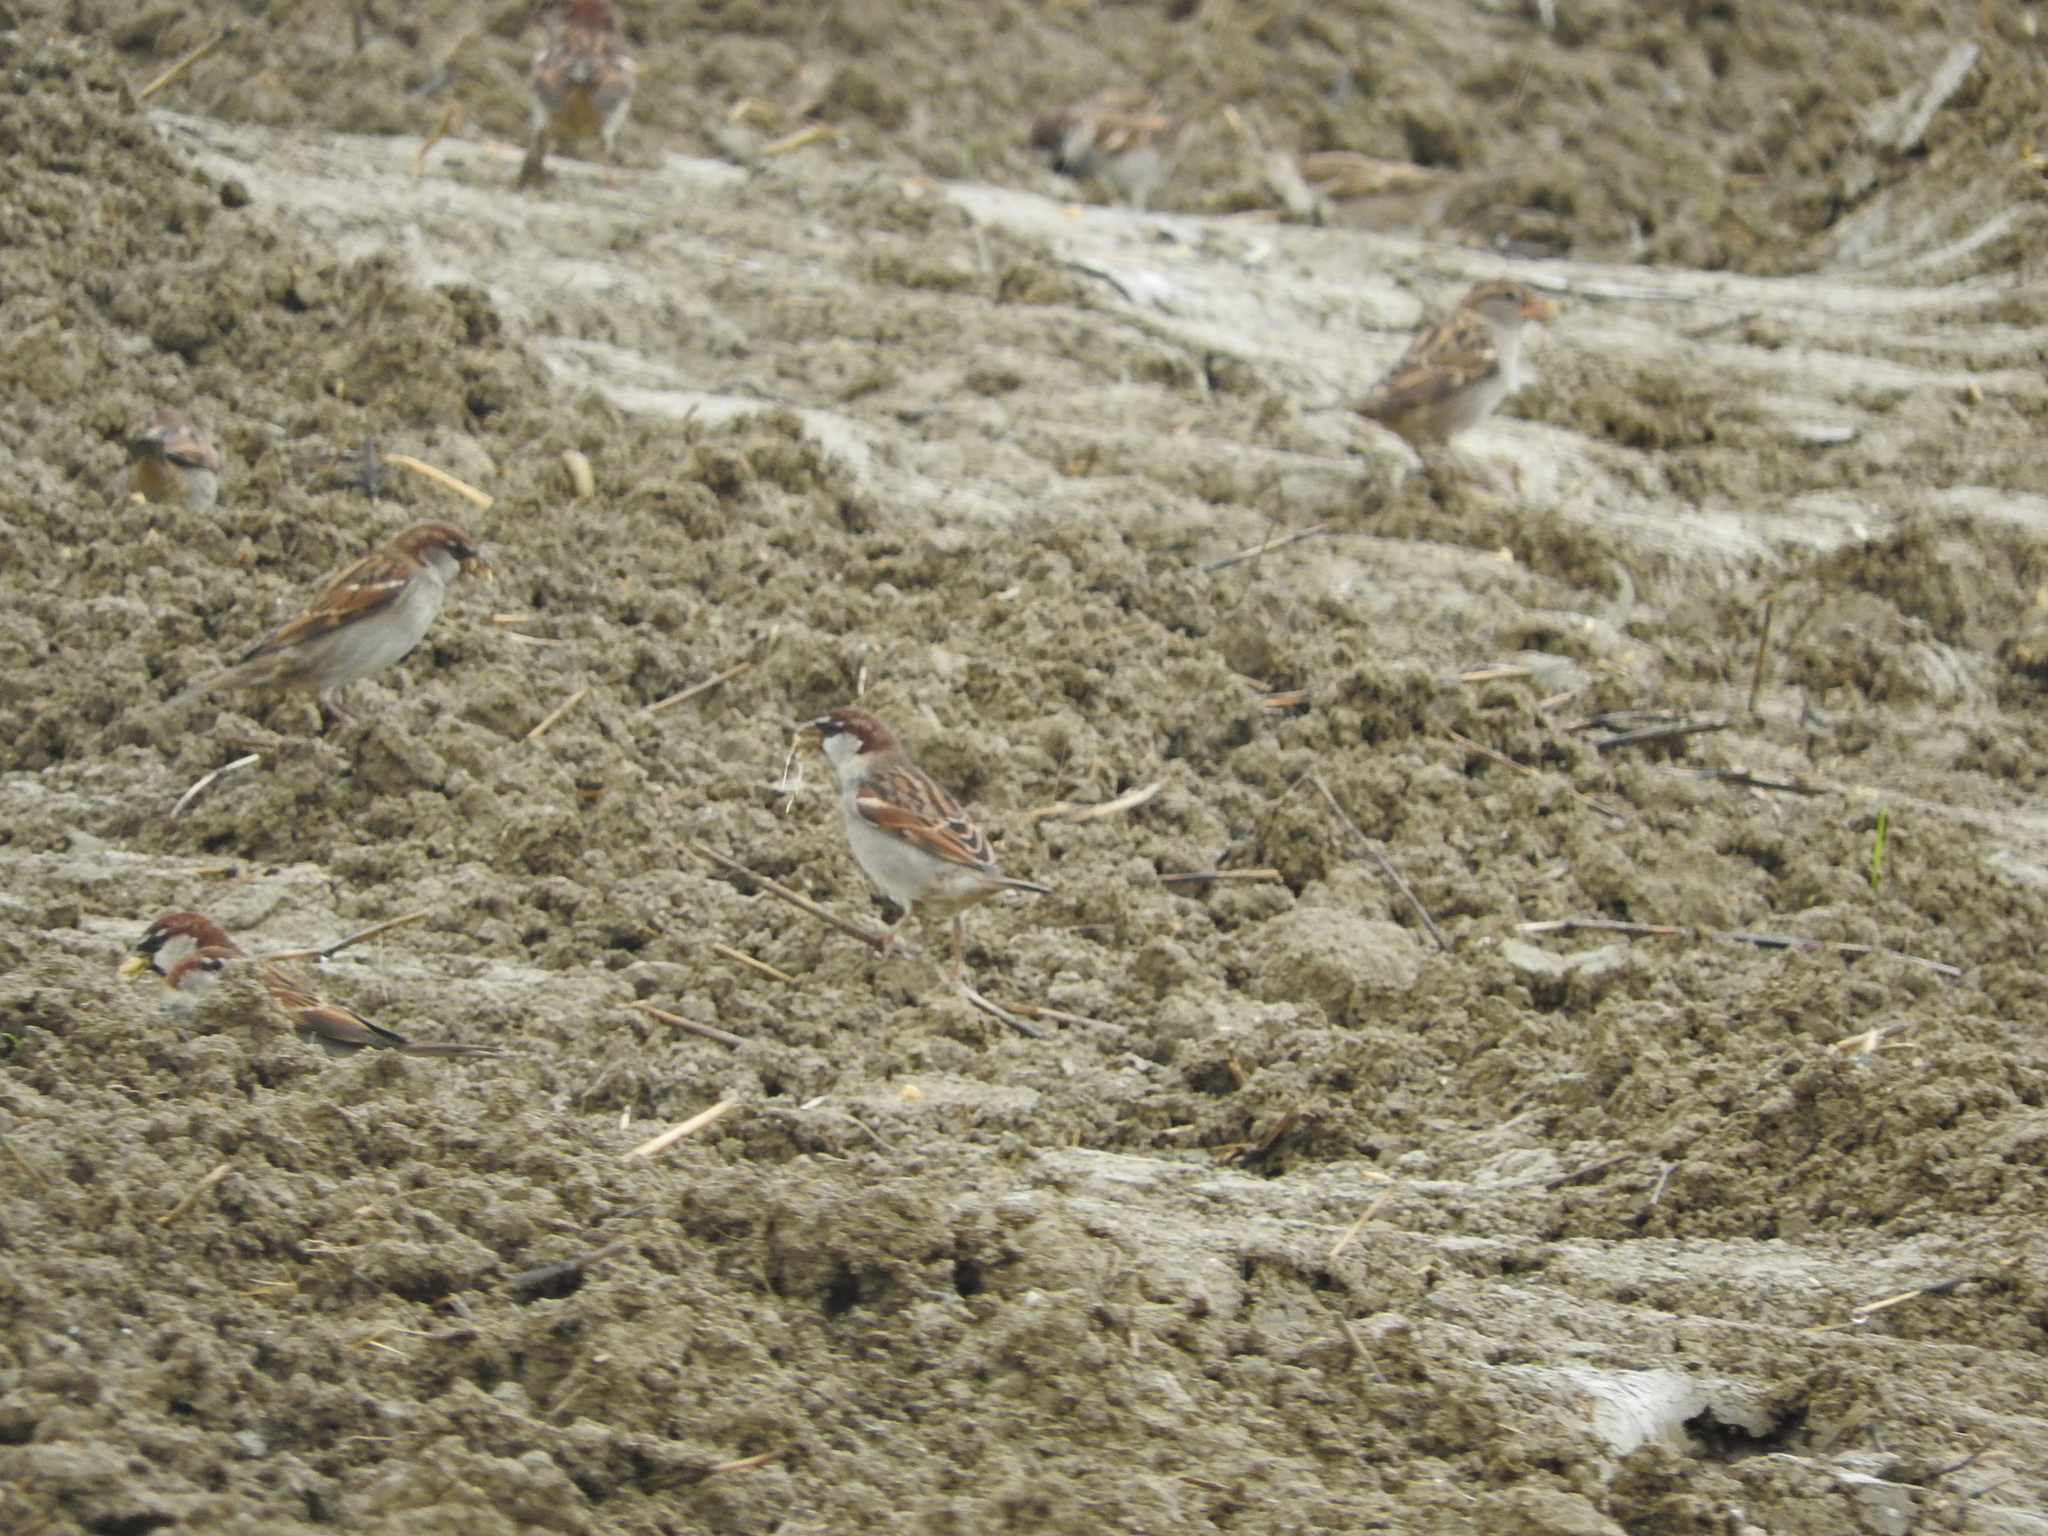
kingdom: Animalia
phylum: Chordata
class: Aves
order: Passeriformes
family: Passeridae
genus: Passer
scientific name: Passer italiae
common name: Italian sparrow
